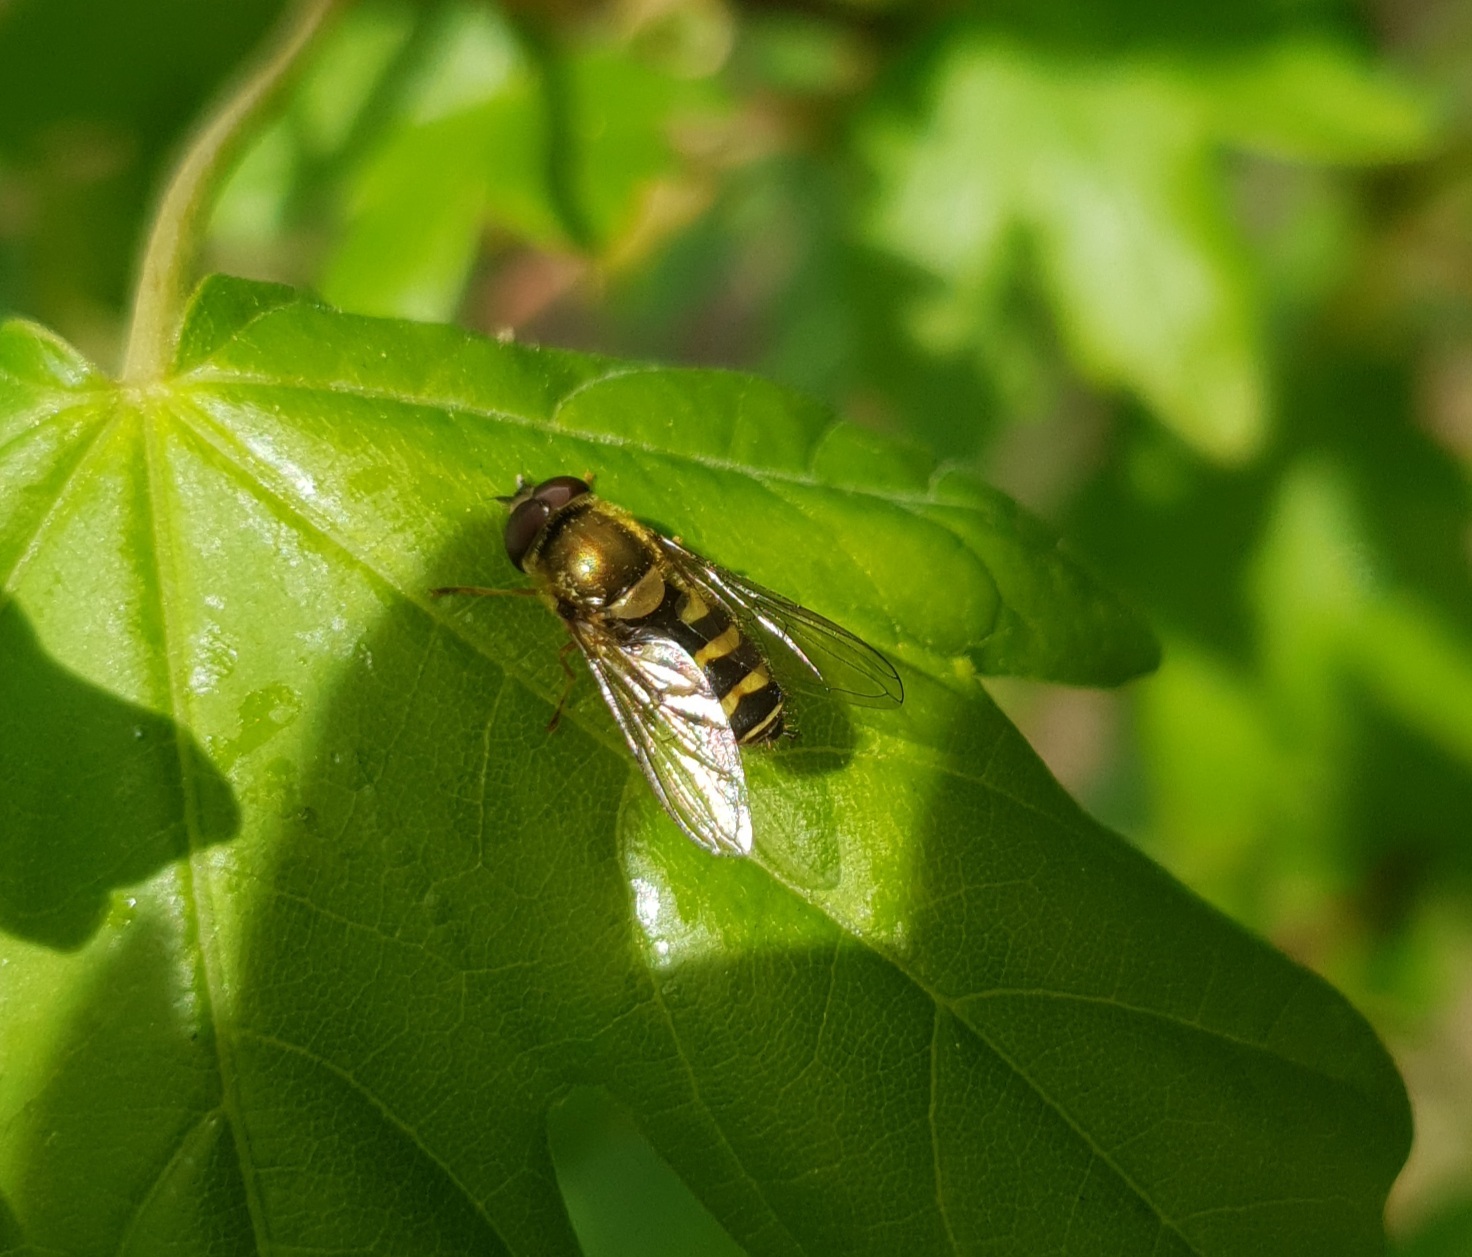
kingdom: Animalia
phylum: Arthropoda
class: Insecta
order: Diptera
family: Syrphidae
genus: Syrphus
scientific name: Syrphus
